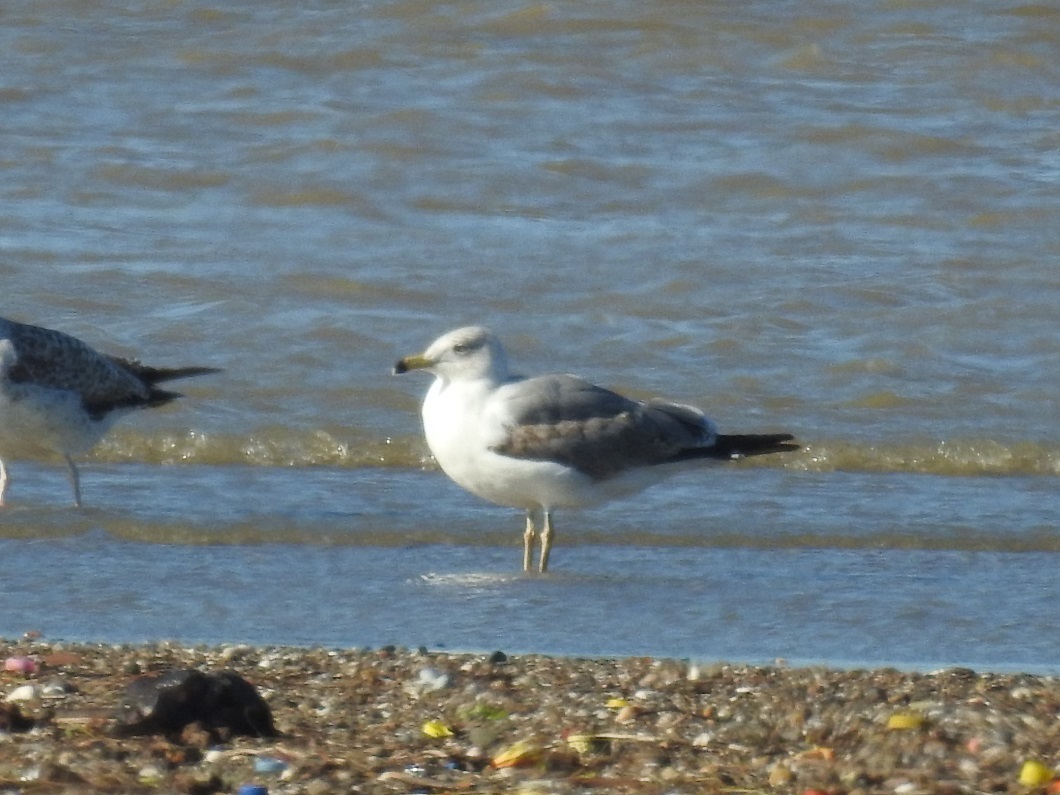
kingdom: Animalia
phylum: Chordata
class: Aves
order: Charadriiformes
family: Laridae
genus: Larus
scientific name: Larus michahellis
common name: Yellow-legged gull
